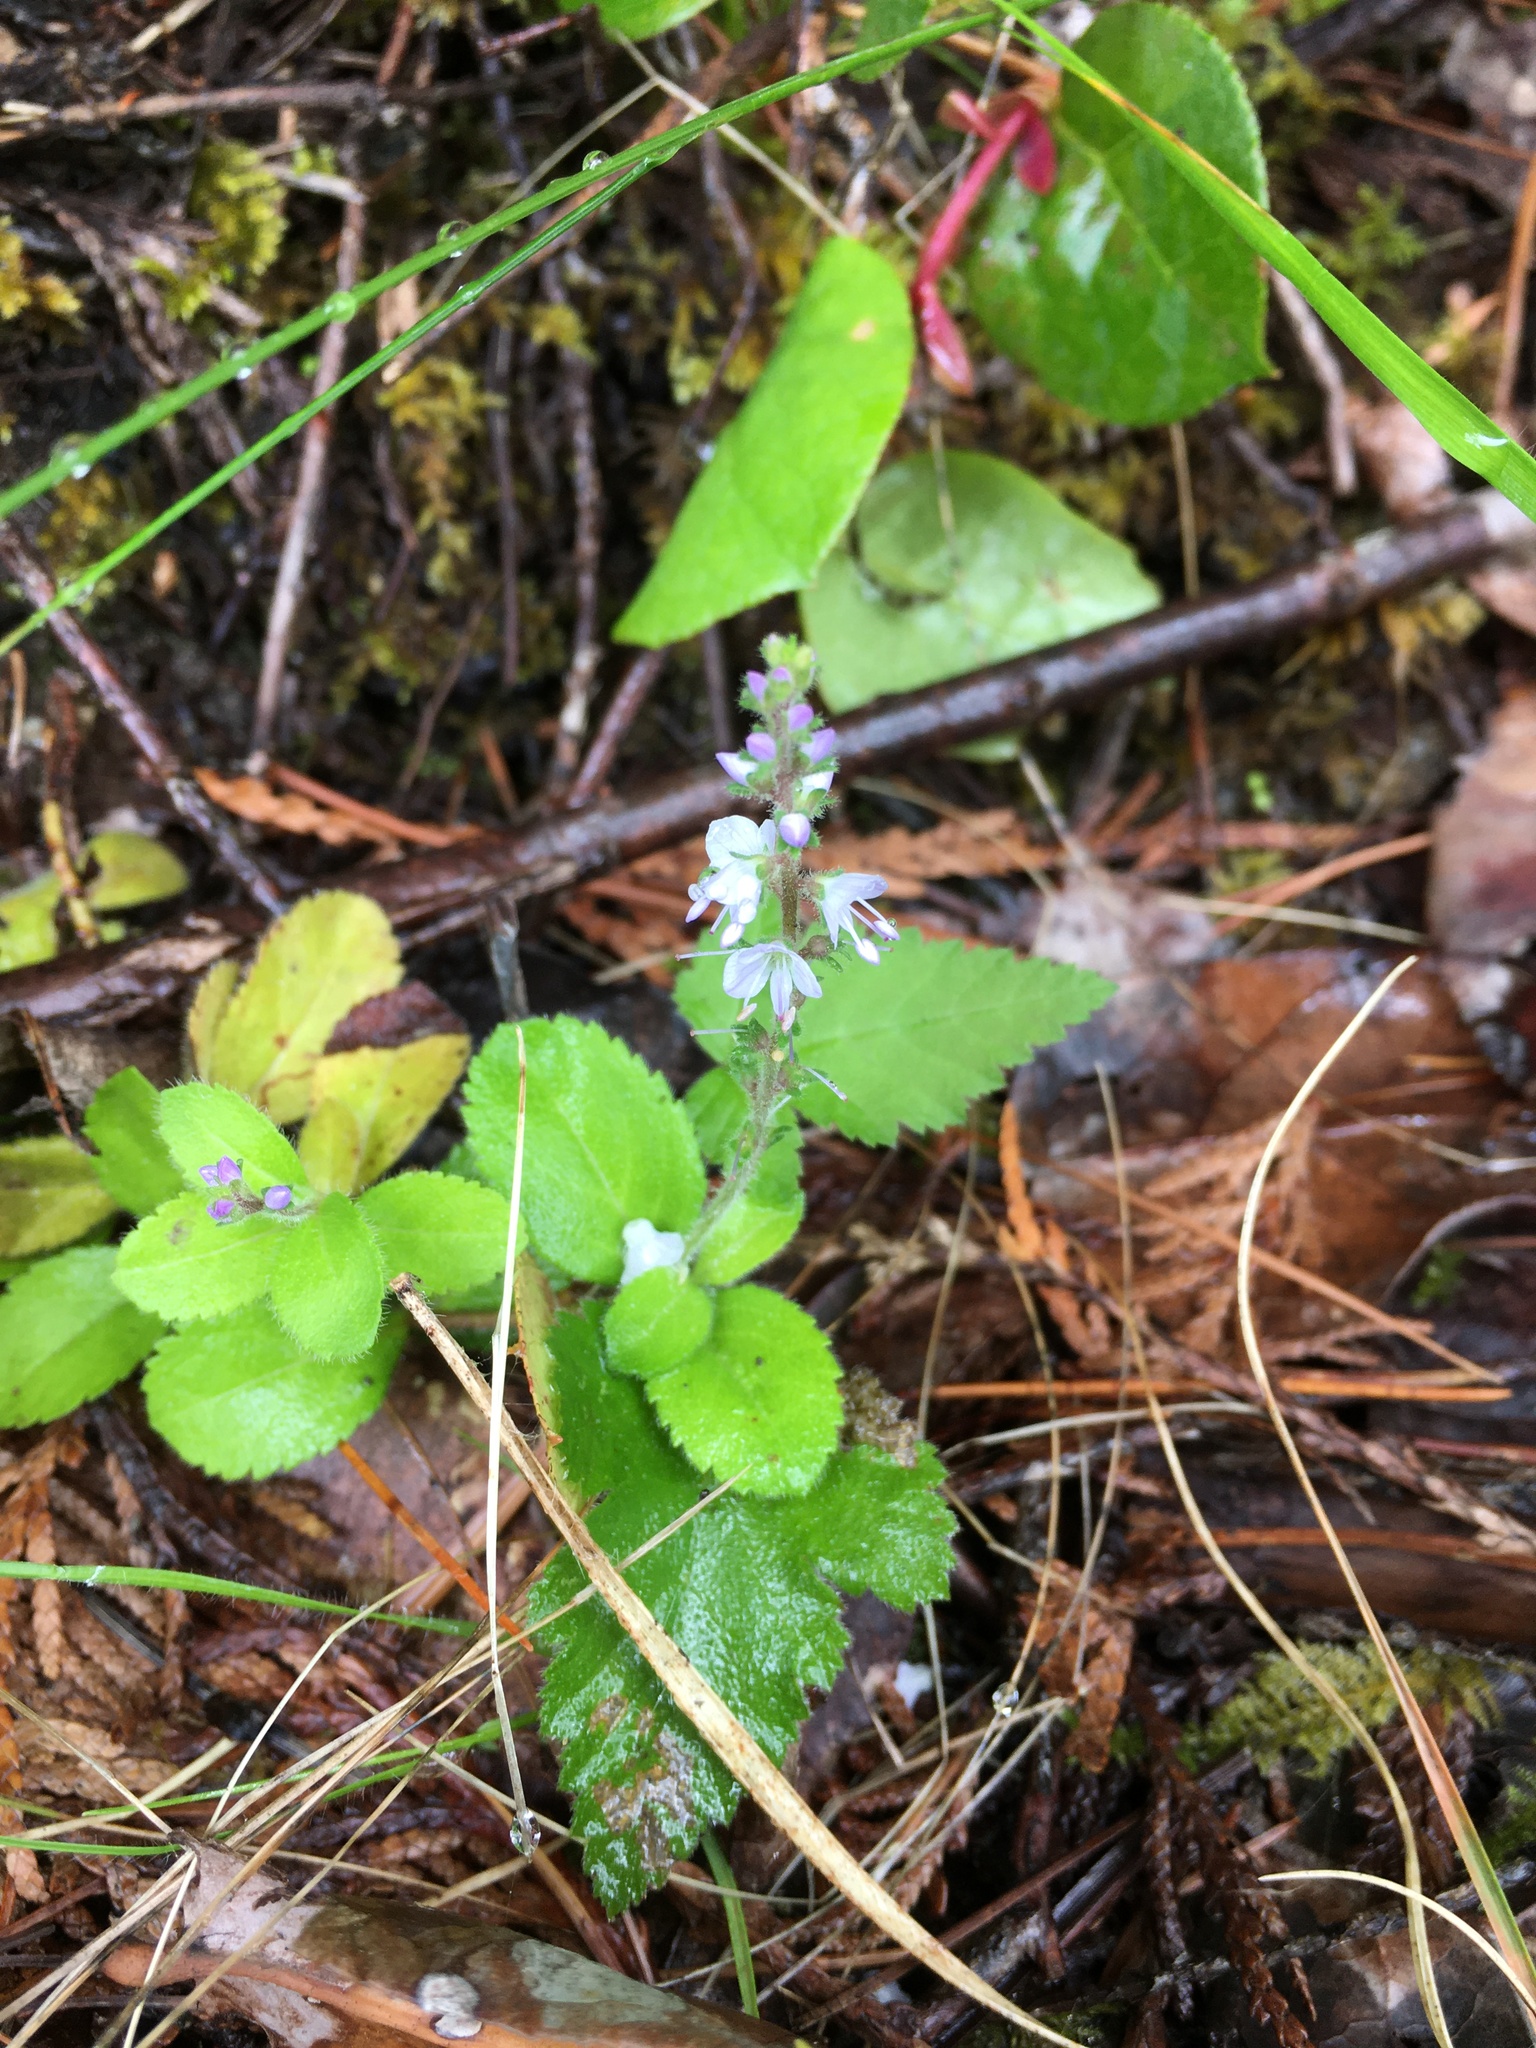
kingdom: Plantae
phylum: Tracheophyta
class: Magnoliopsida
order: Lamiales
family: Plantaginaceae
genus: Veronica
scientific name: Veronica officinalis
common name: Common speedwell
